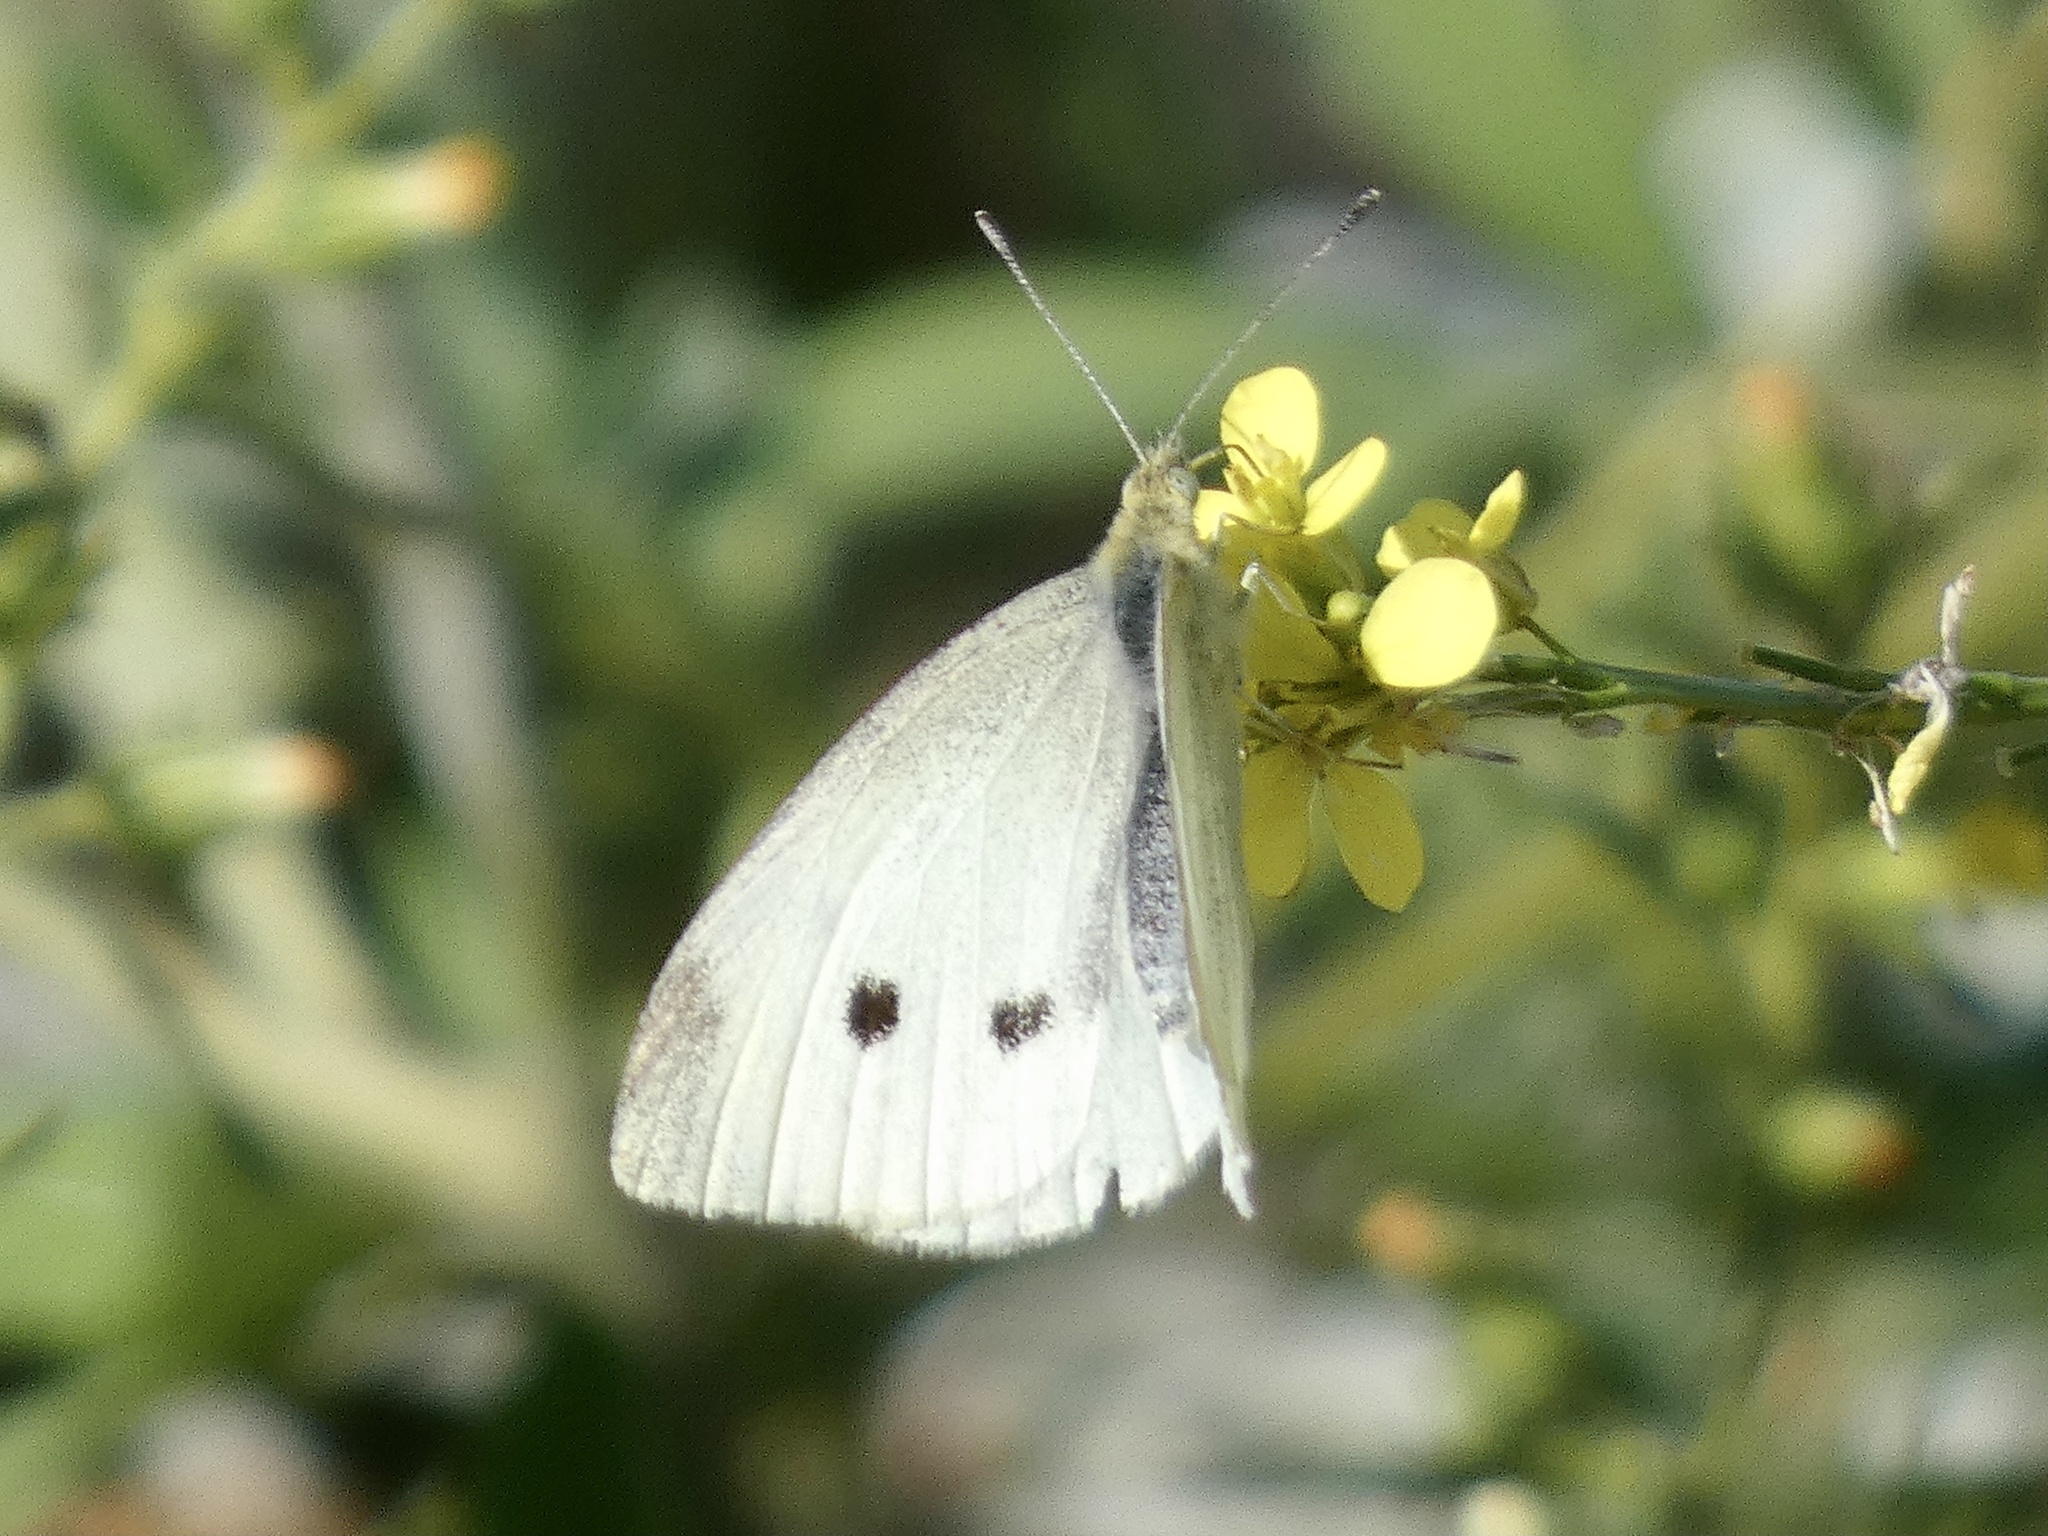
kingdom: Animalia
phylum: Arthropoda
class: Insecta
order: Lepidoptera
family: Pieridae
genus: Pieris
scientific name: Pieris rapae
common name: Small white
